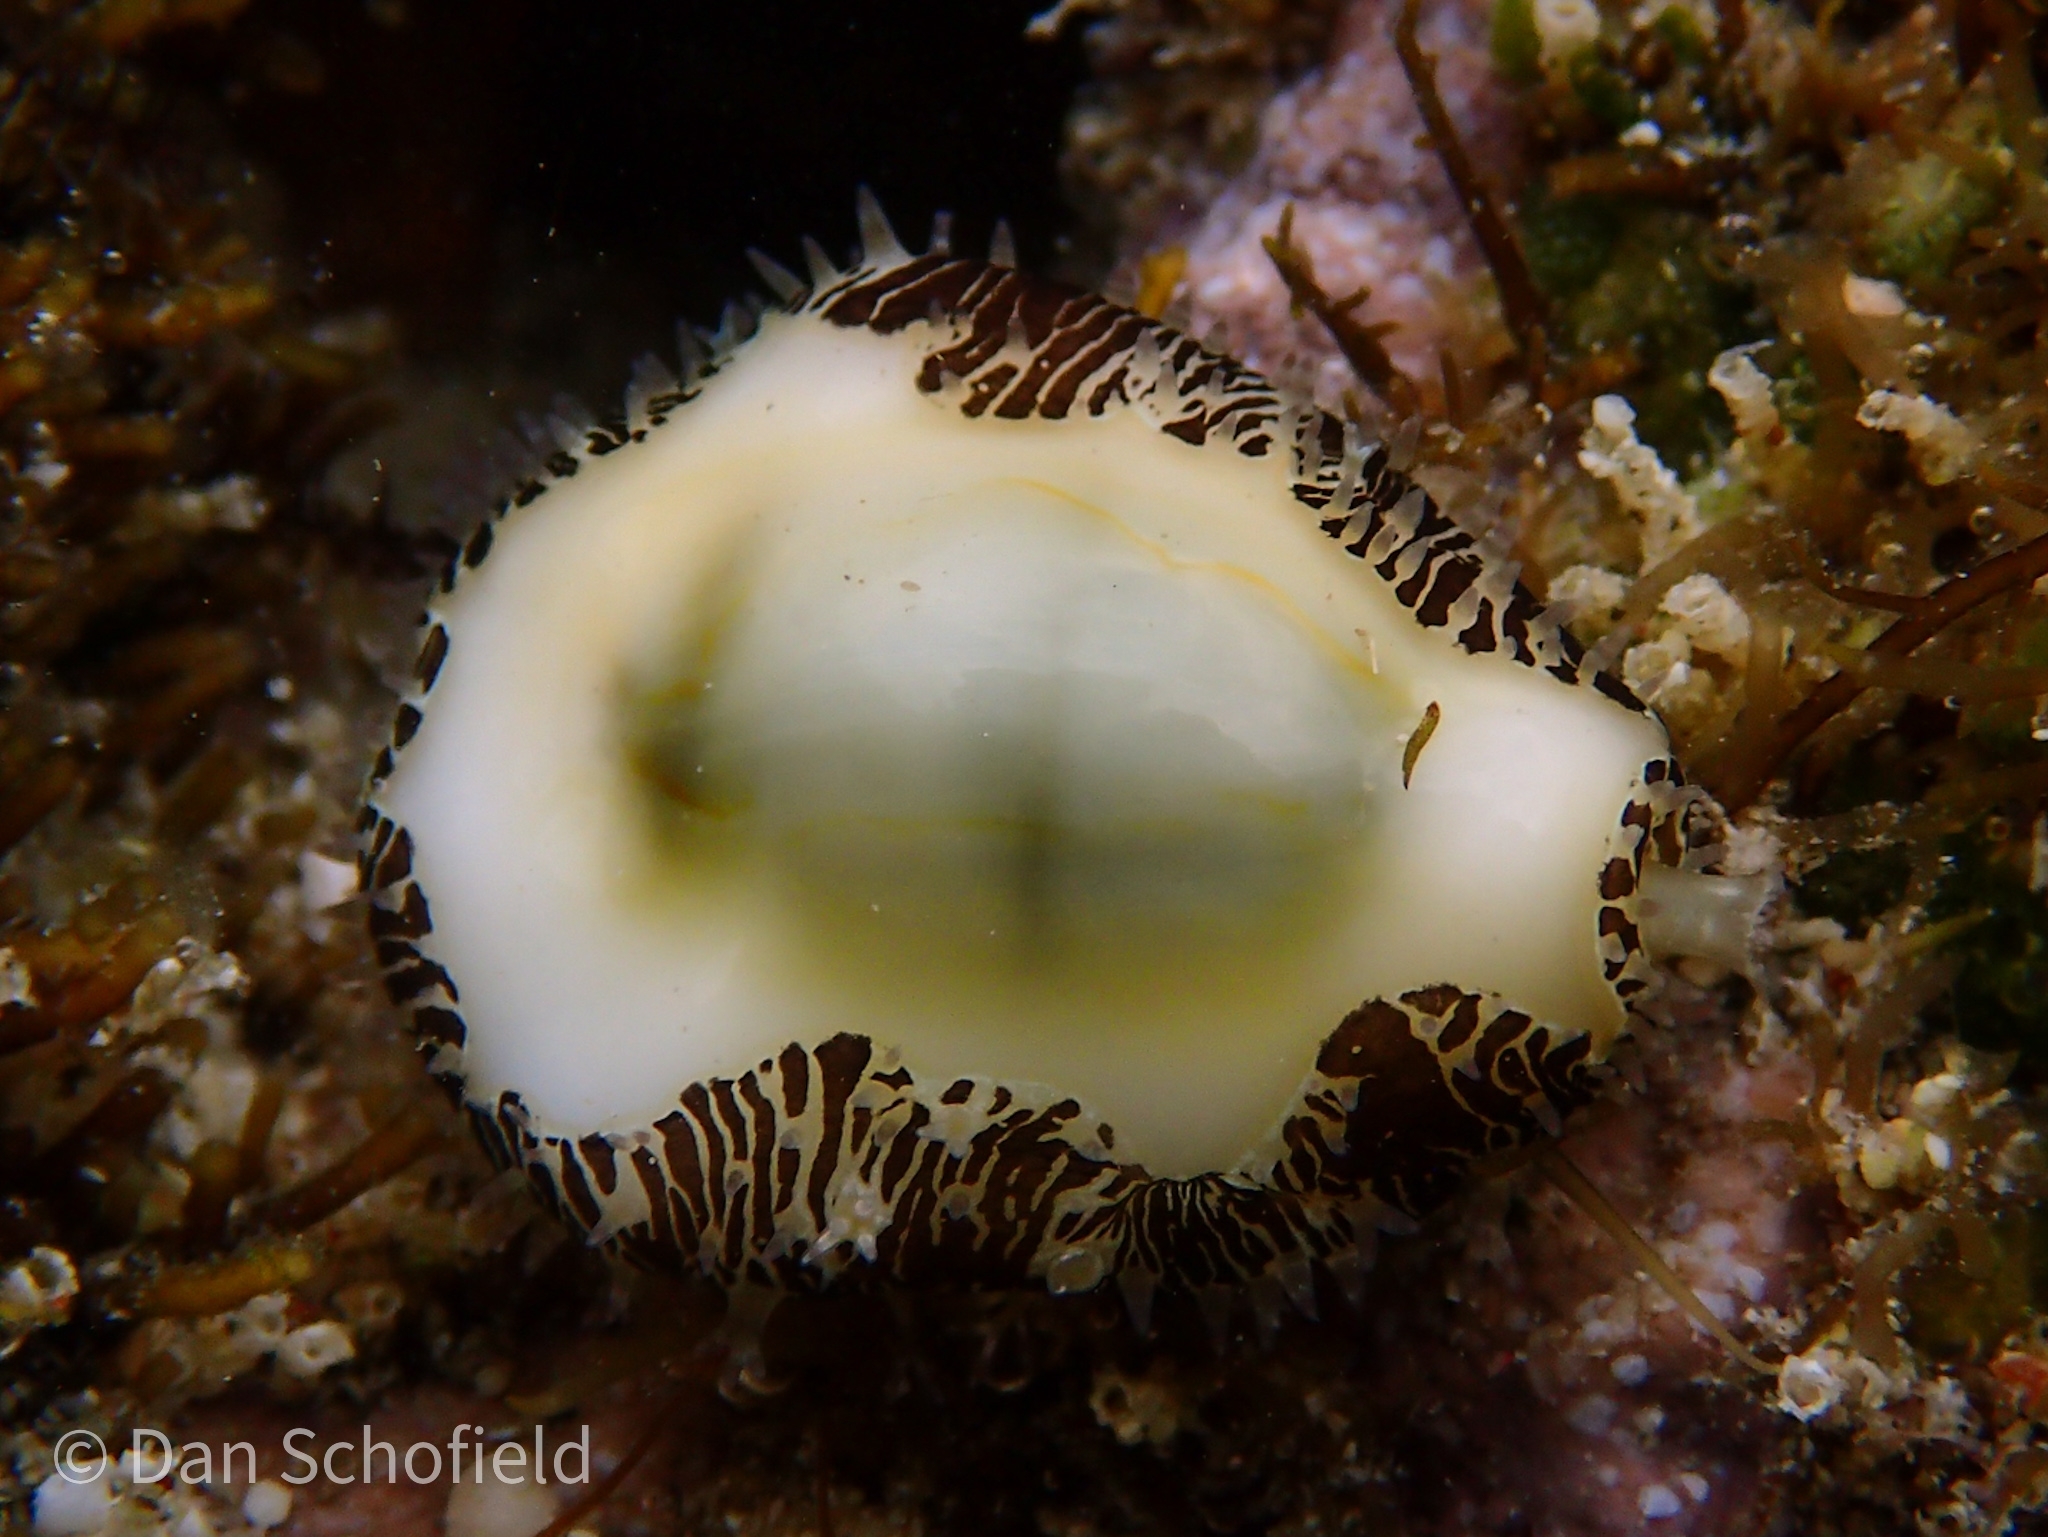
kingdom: Animalia
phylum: Mollusca
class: Gastropoda
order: Littorinimorpha
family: Cypraeidae
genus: Monetaria
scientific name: Monetaria moneta
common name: Money cowrie
